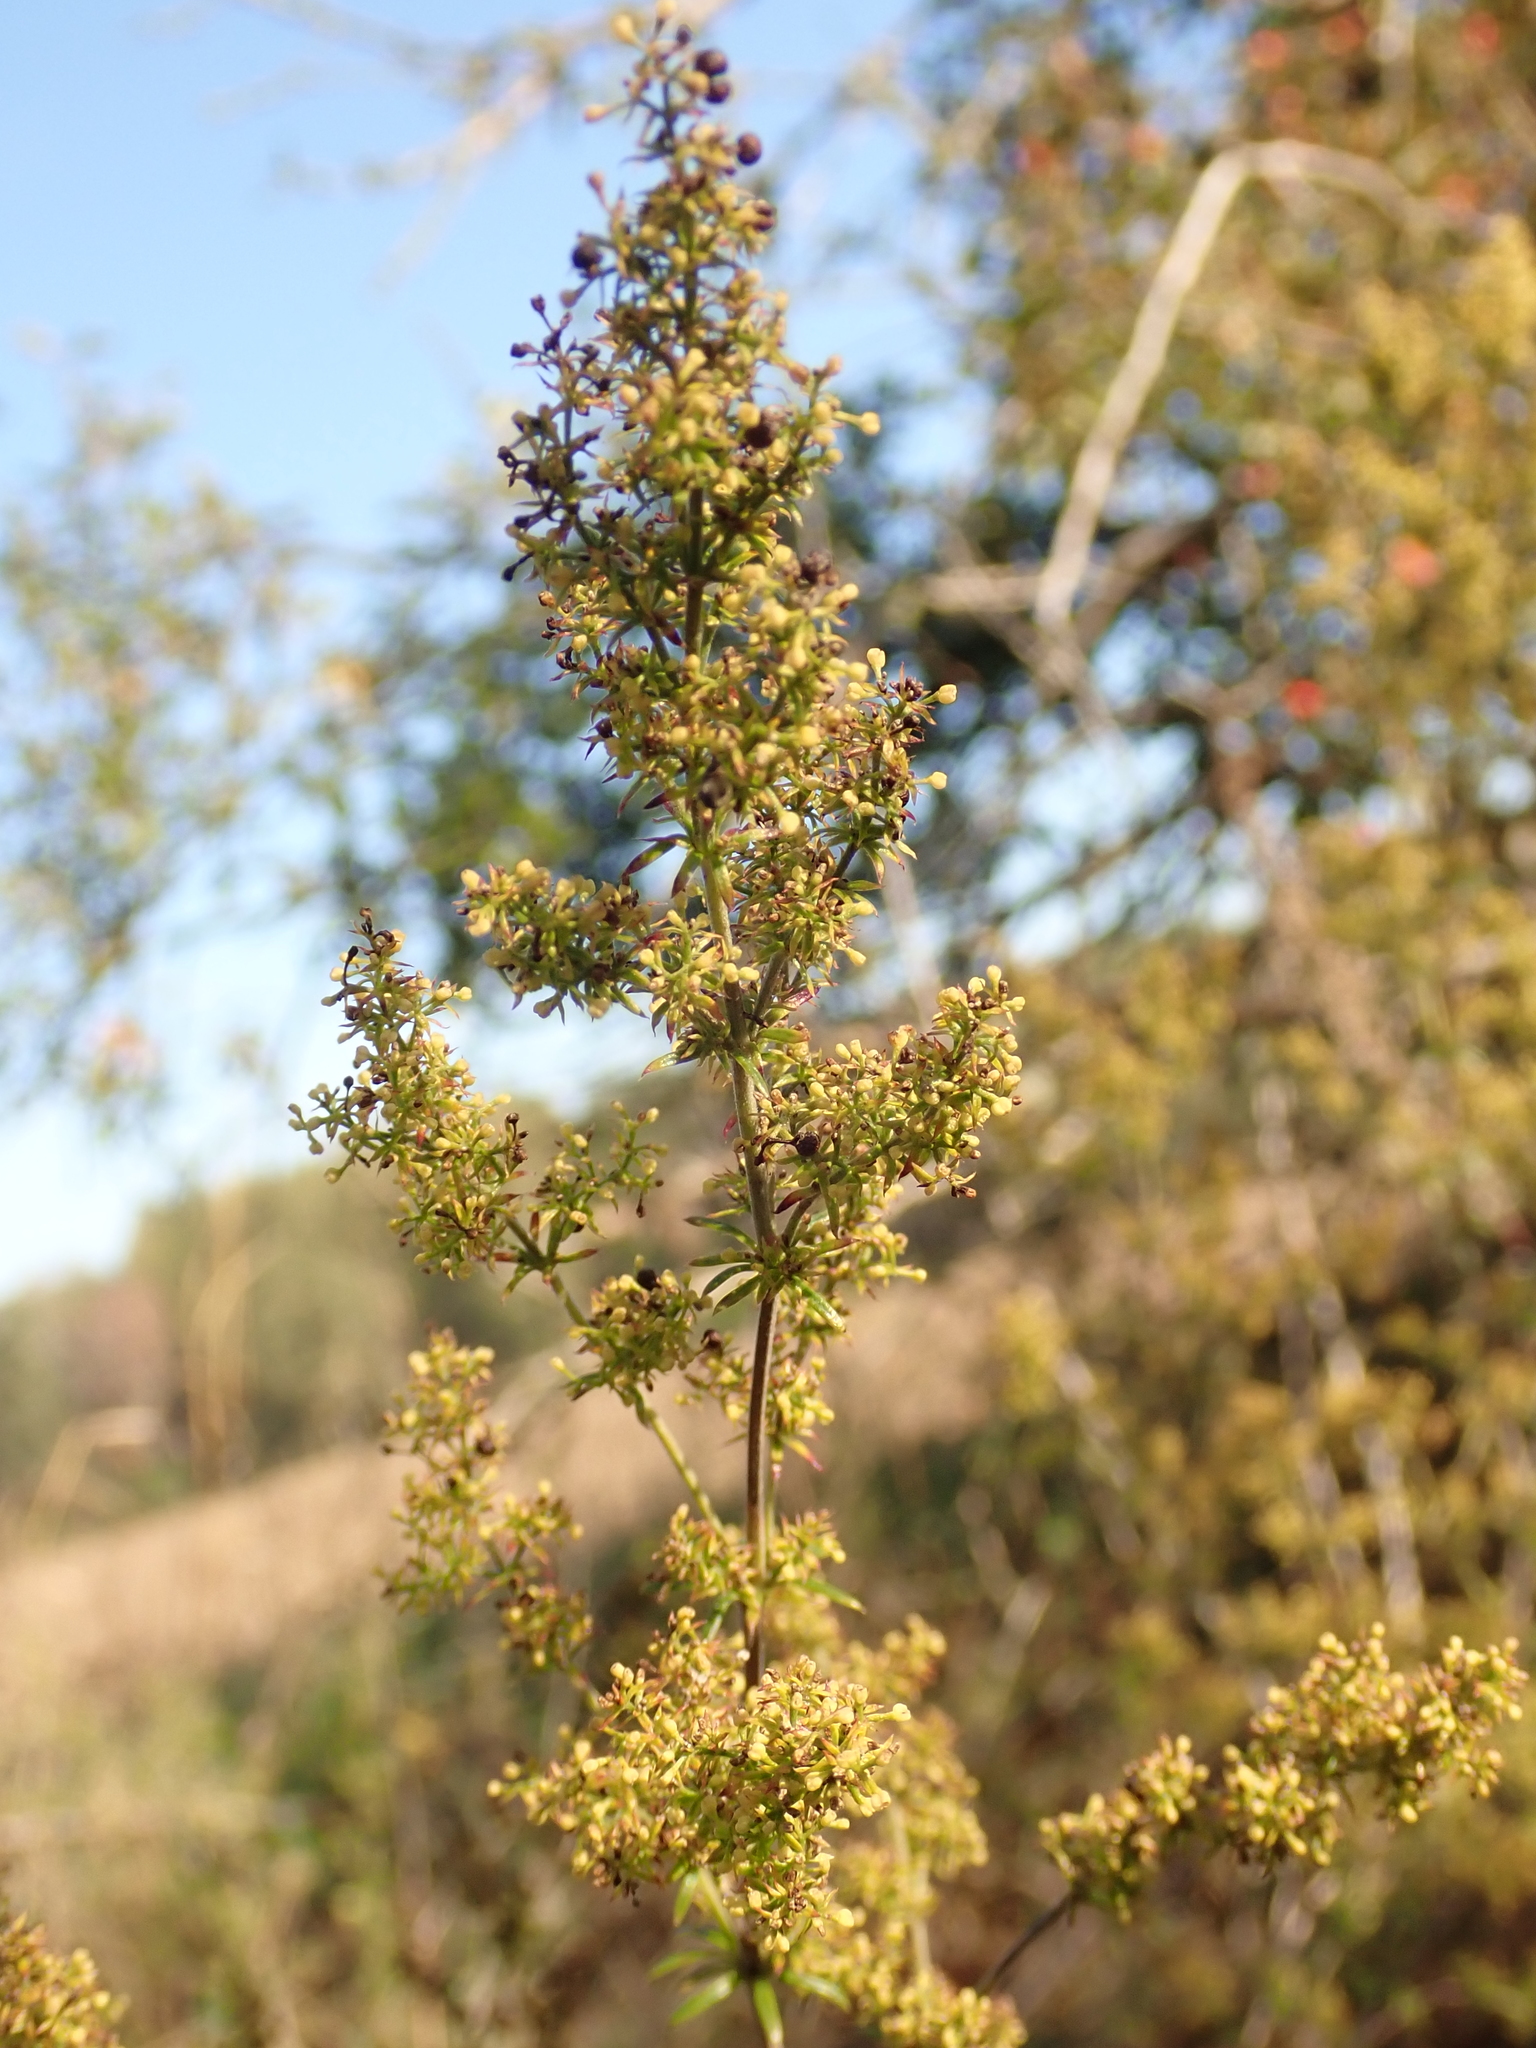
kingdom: Plantae
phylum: Tracheophyta
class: Magnoliopsida
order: Gentianales
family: Rubiaceae
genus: Galium
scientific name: Galium verum
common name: Lady's bedstraw
